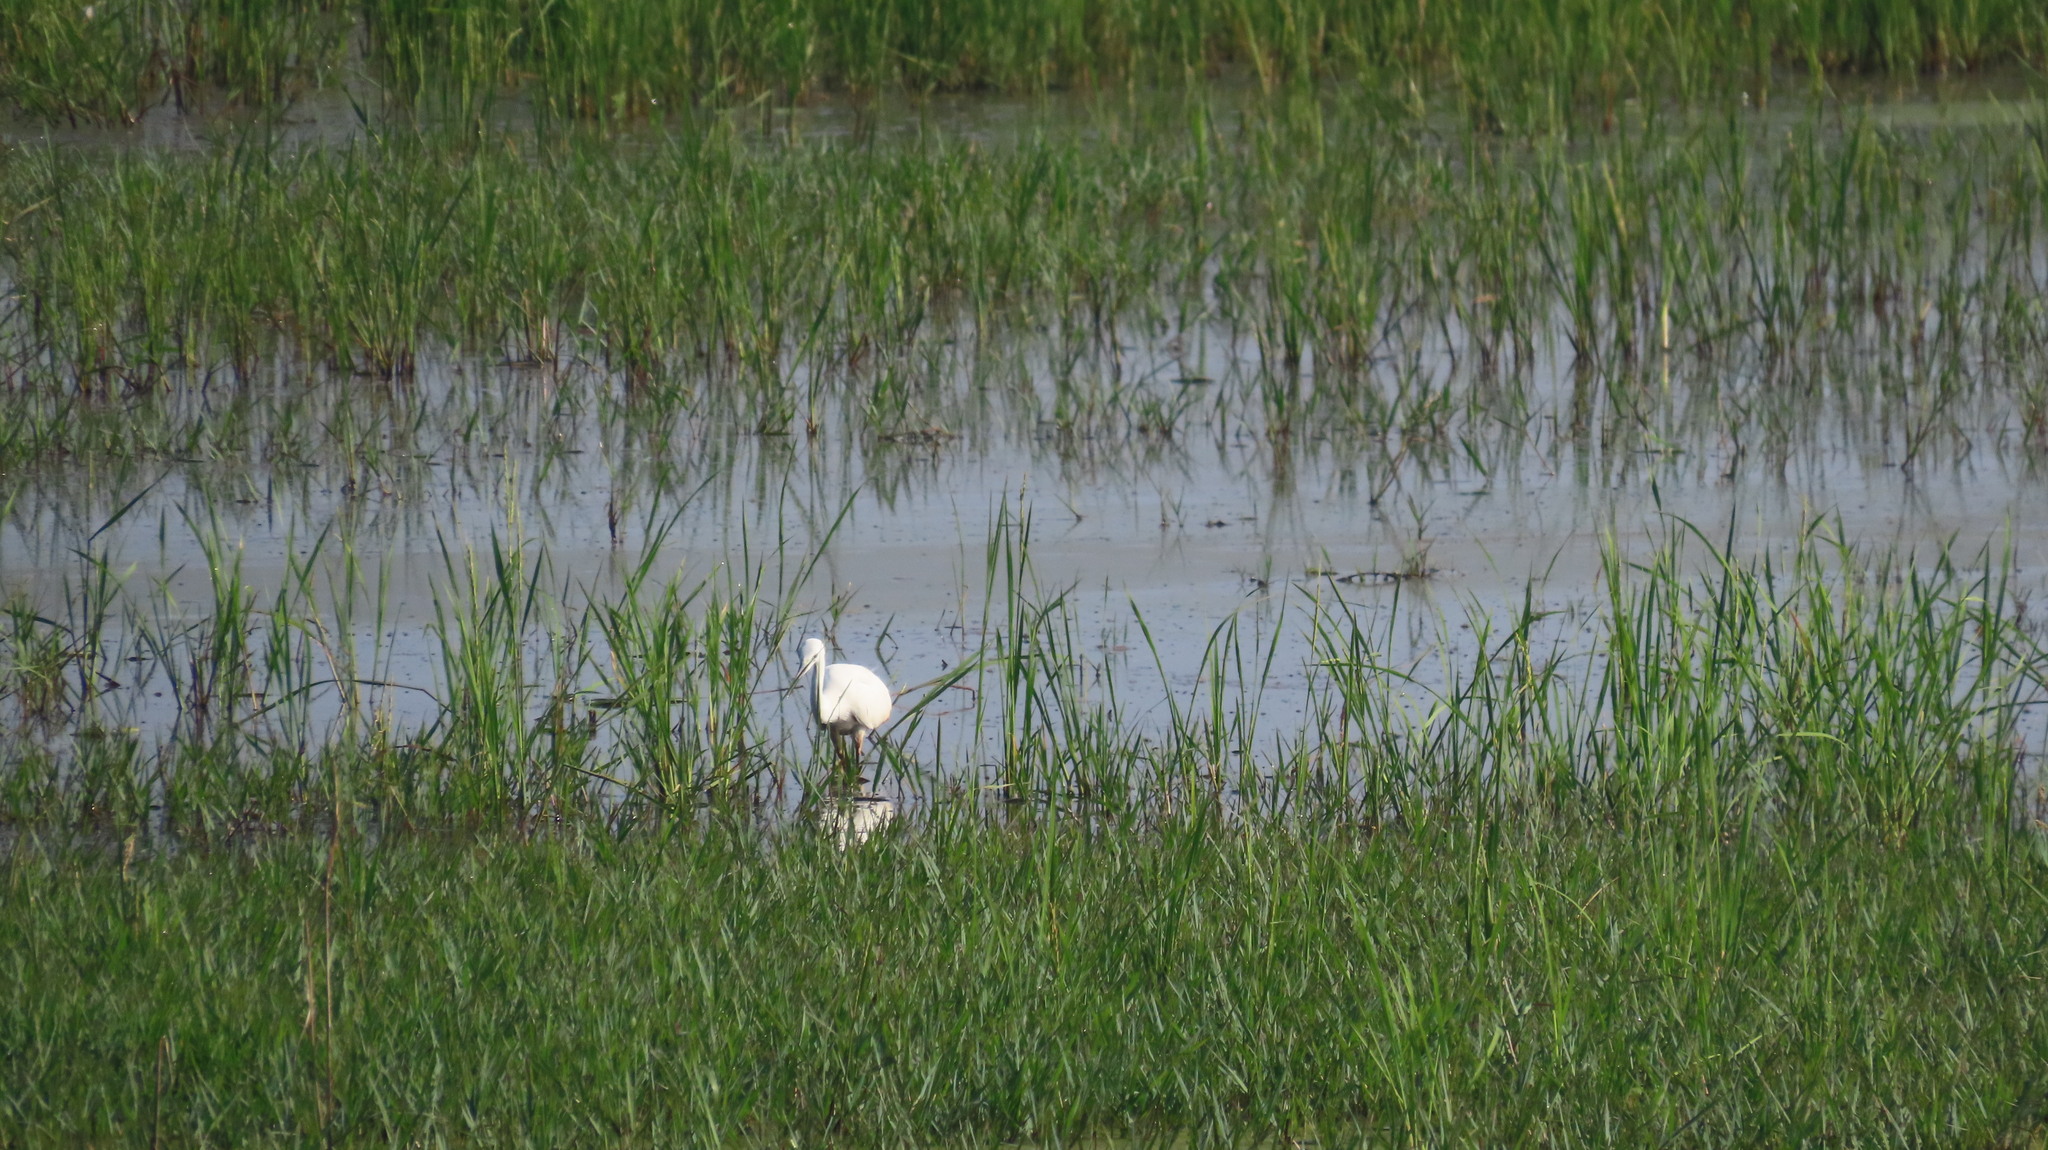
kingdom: Animalia
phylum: Chordata
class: Aves
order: Pelecaniformes
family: Ardeidae
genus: Egretta
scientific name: Egretta garzetta
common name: Little egret
